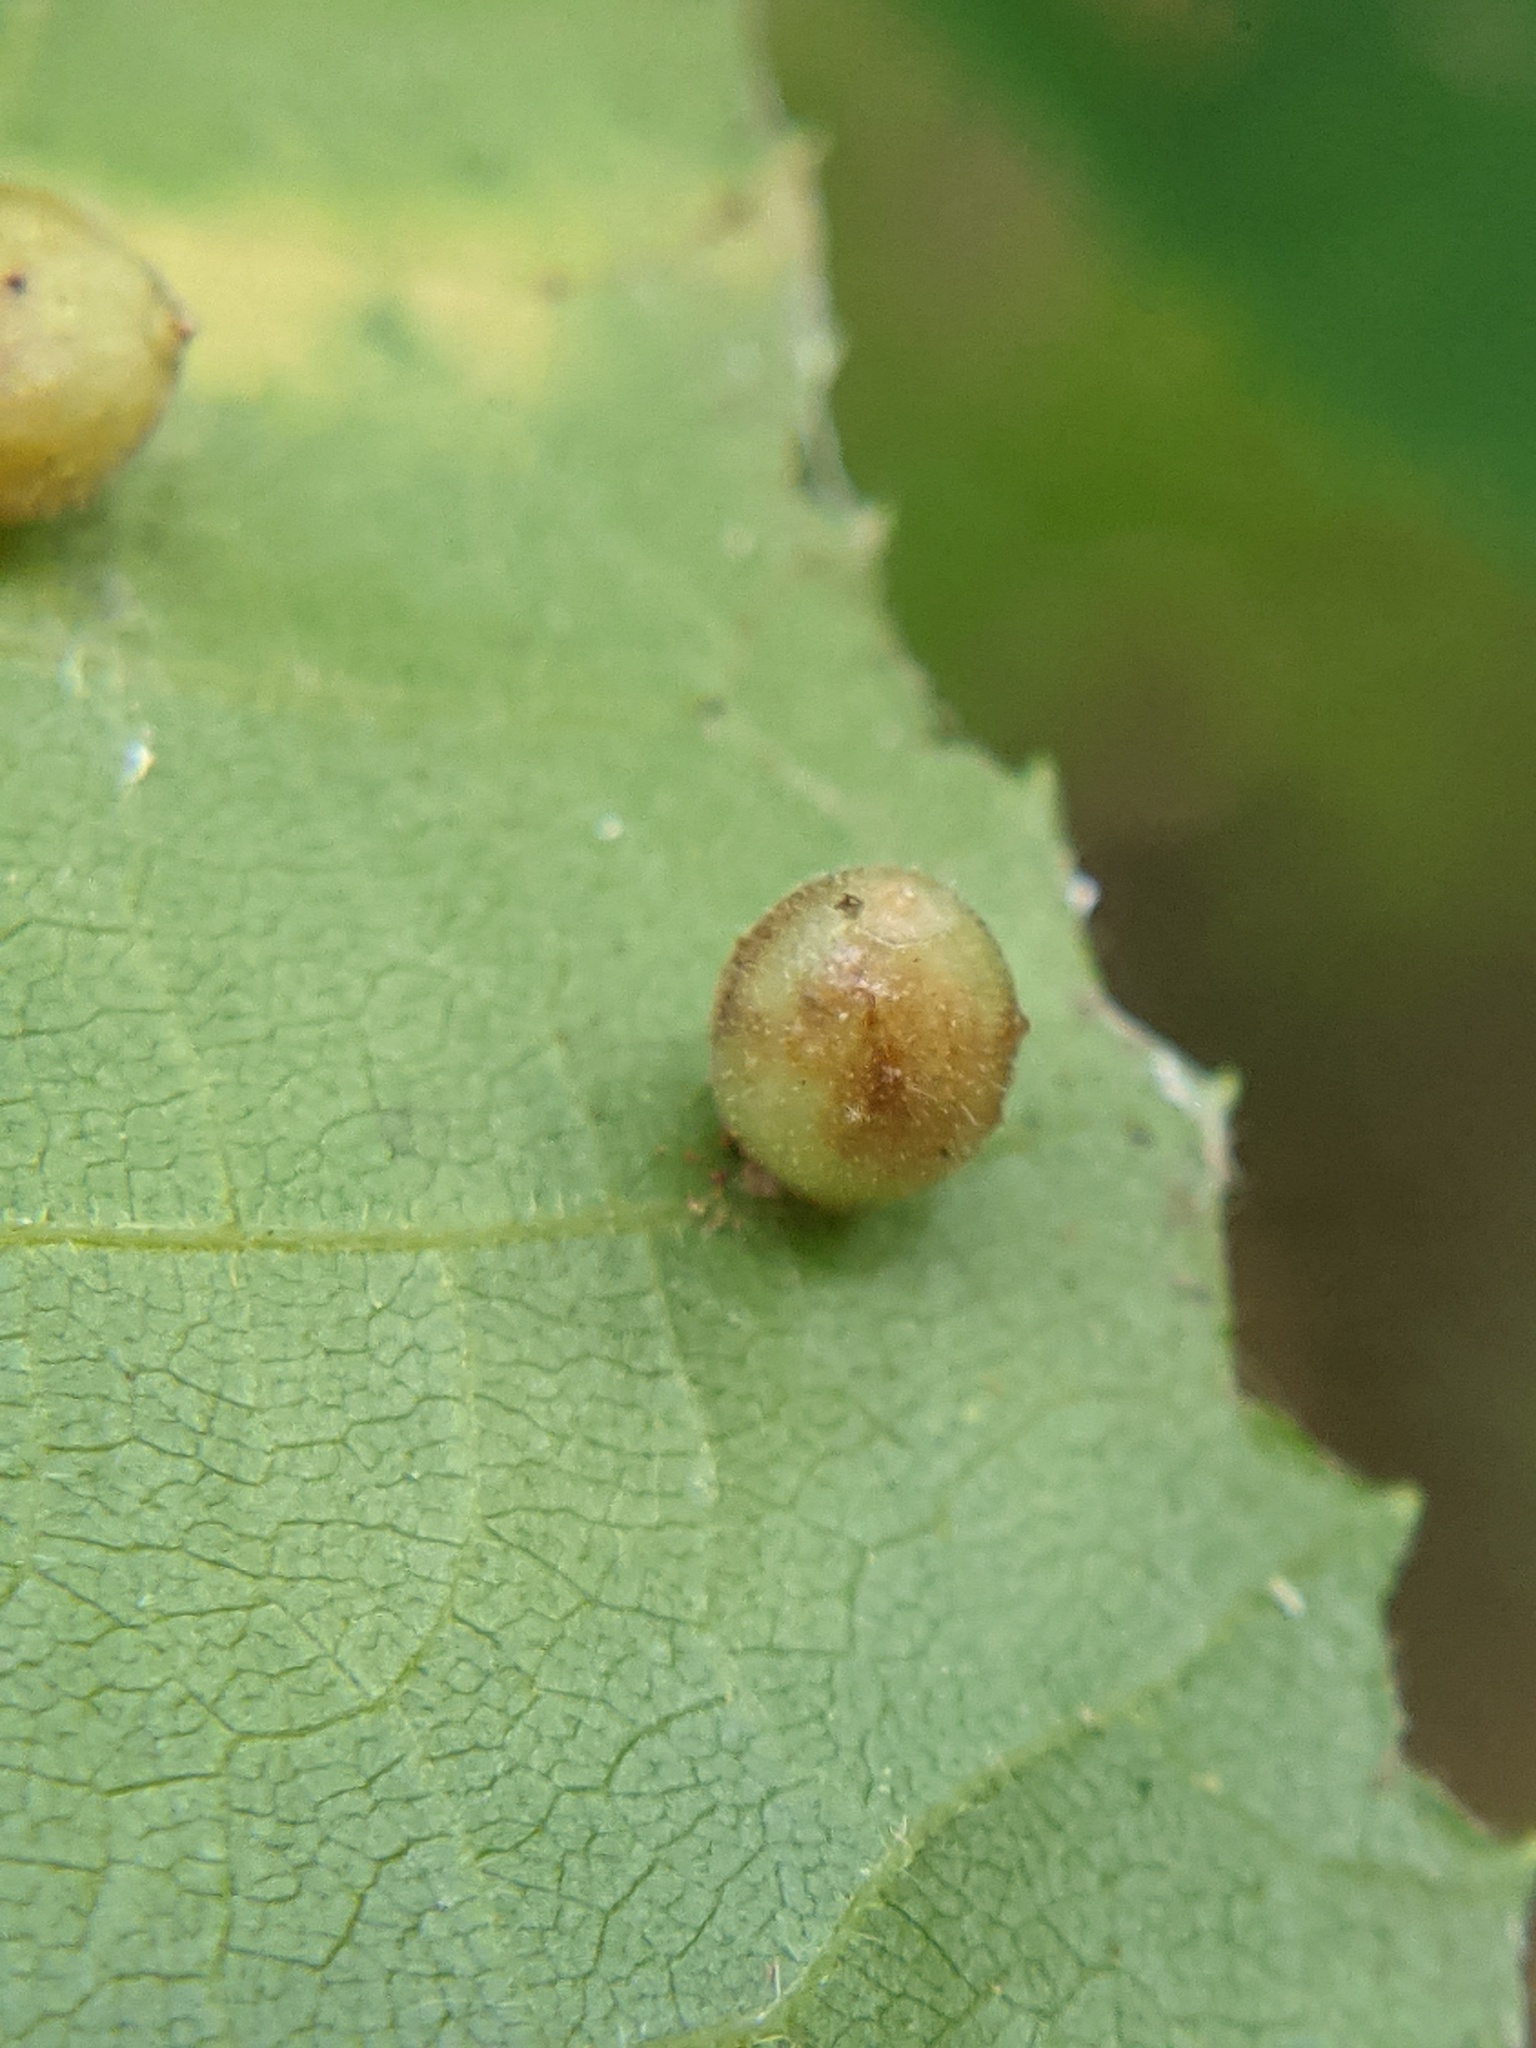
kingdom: Animalia
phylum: Arthropoda
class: Insecta
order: Diptera
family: Cecidomyiidae
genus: Caryomyia
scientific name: Caryomyia cilidolium
